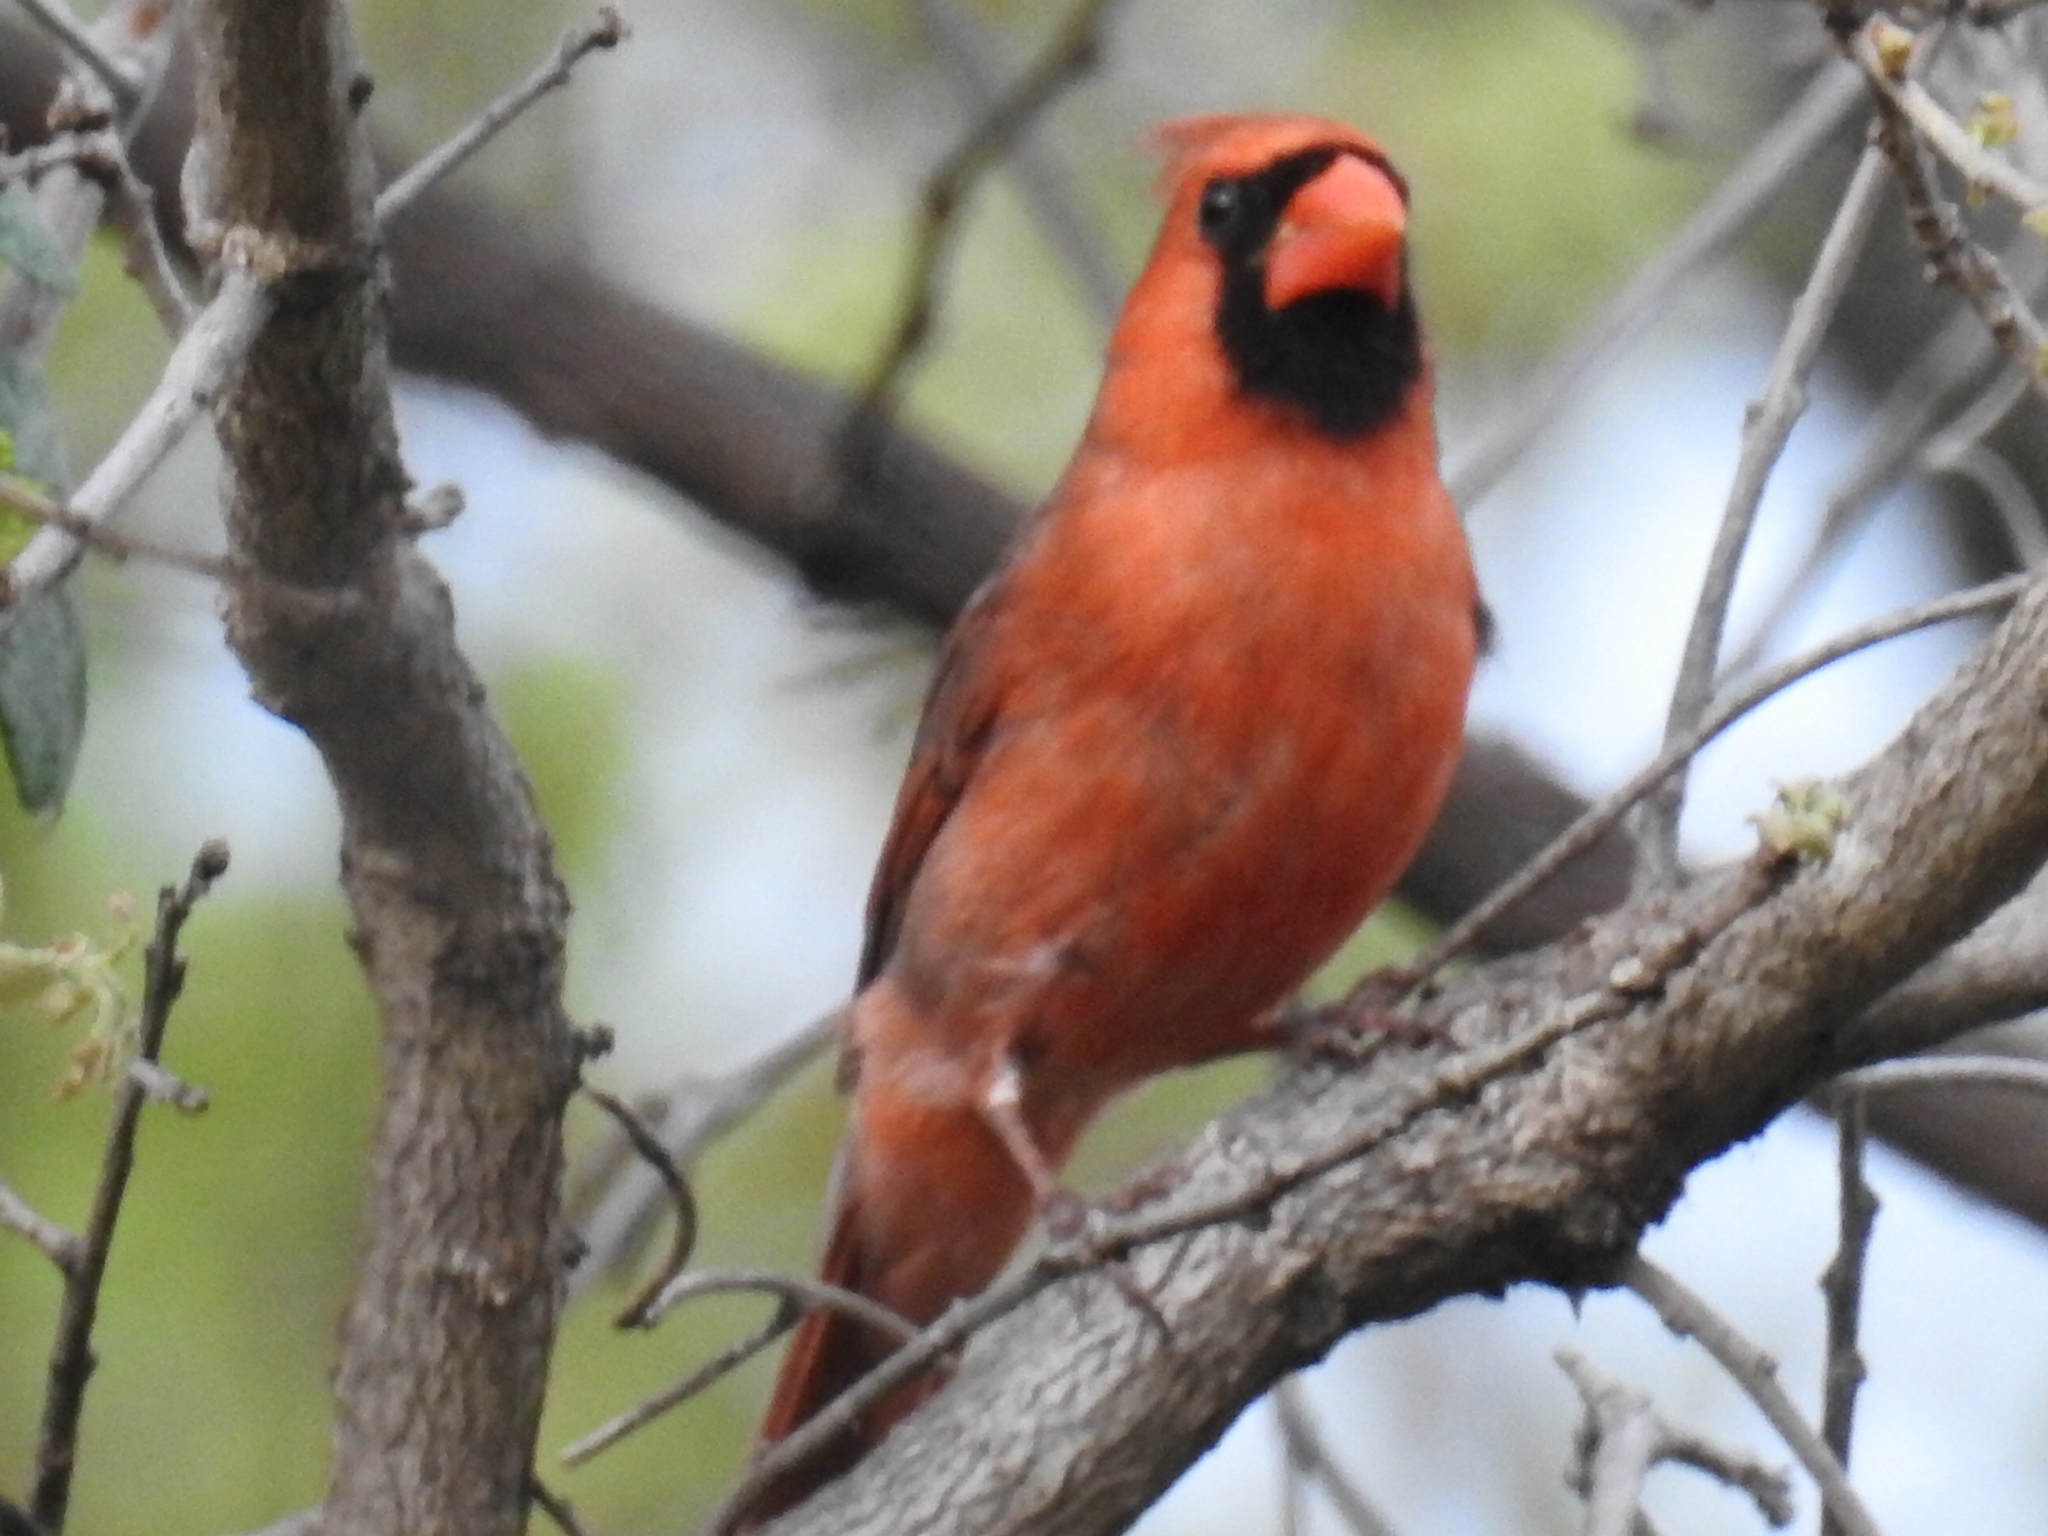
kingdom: Animalia
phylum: Chordata
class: Aves
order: Passeriformes
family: Cardinalidae
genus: Cardinalis
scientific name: Cardinalis cardinalis
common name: Northern cardinal
